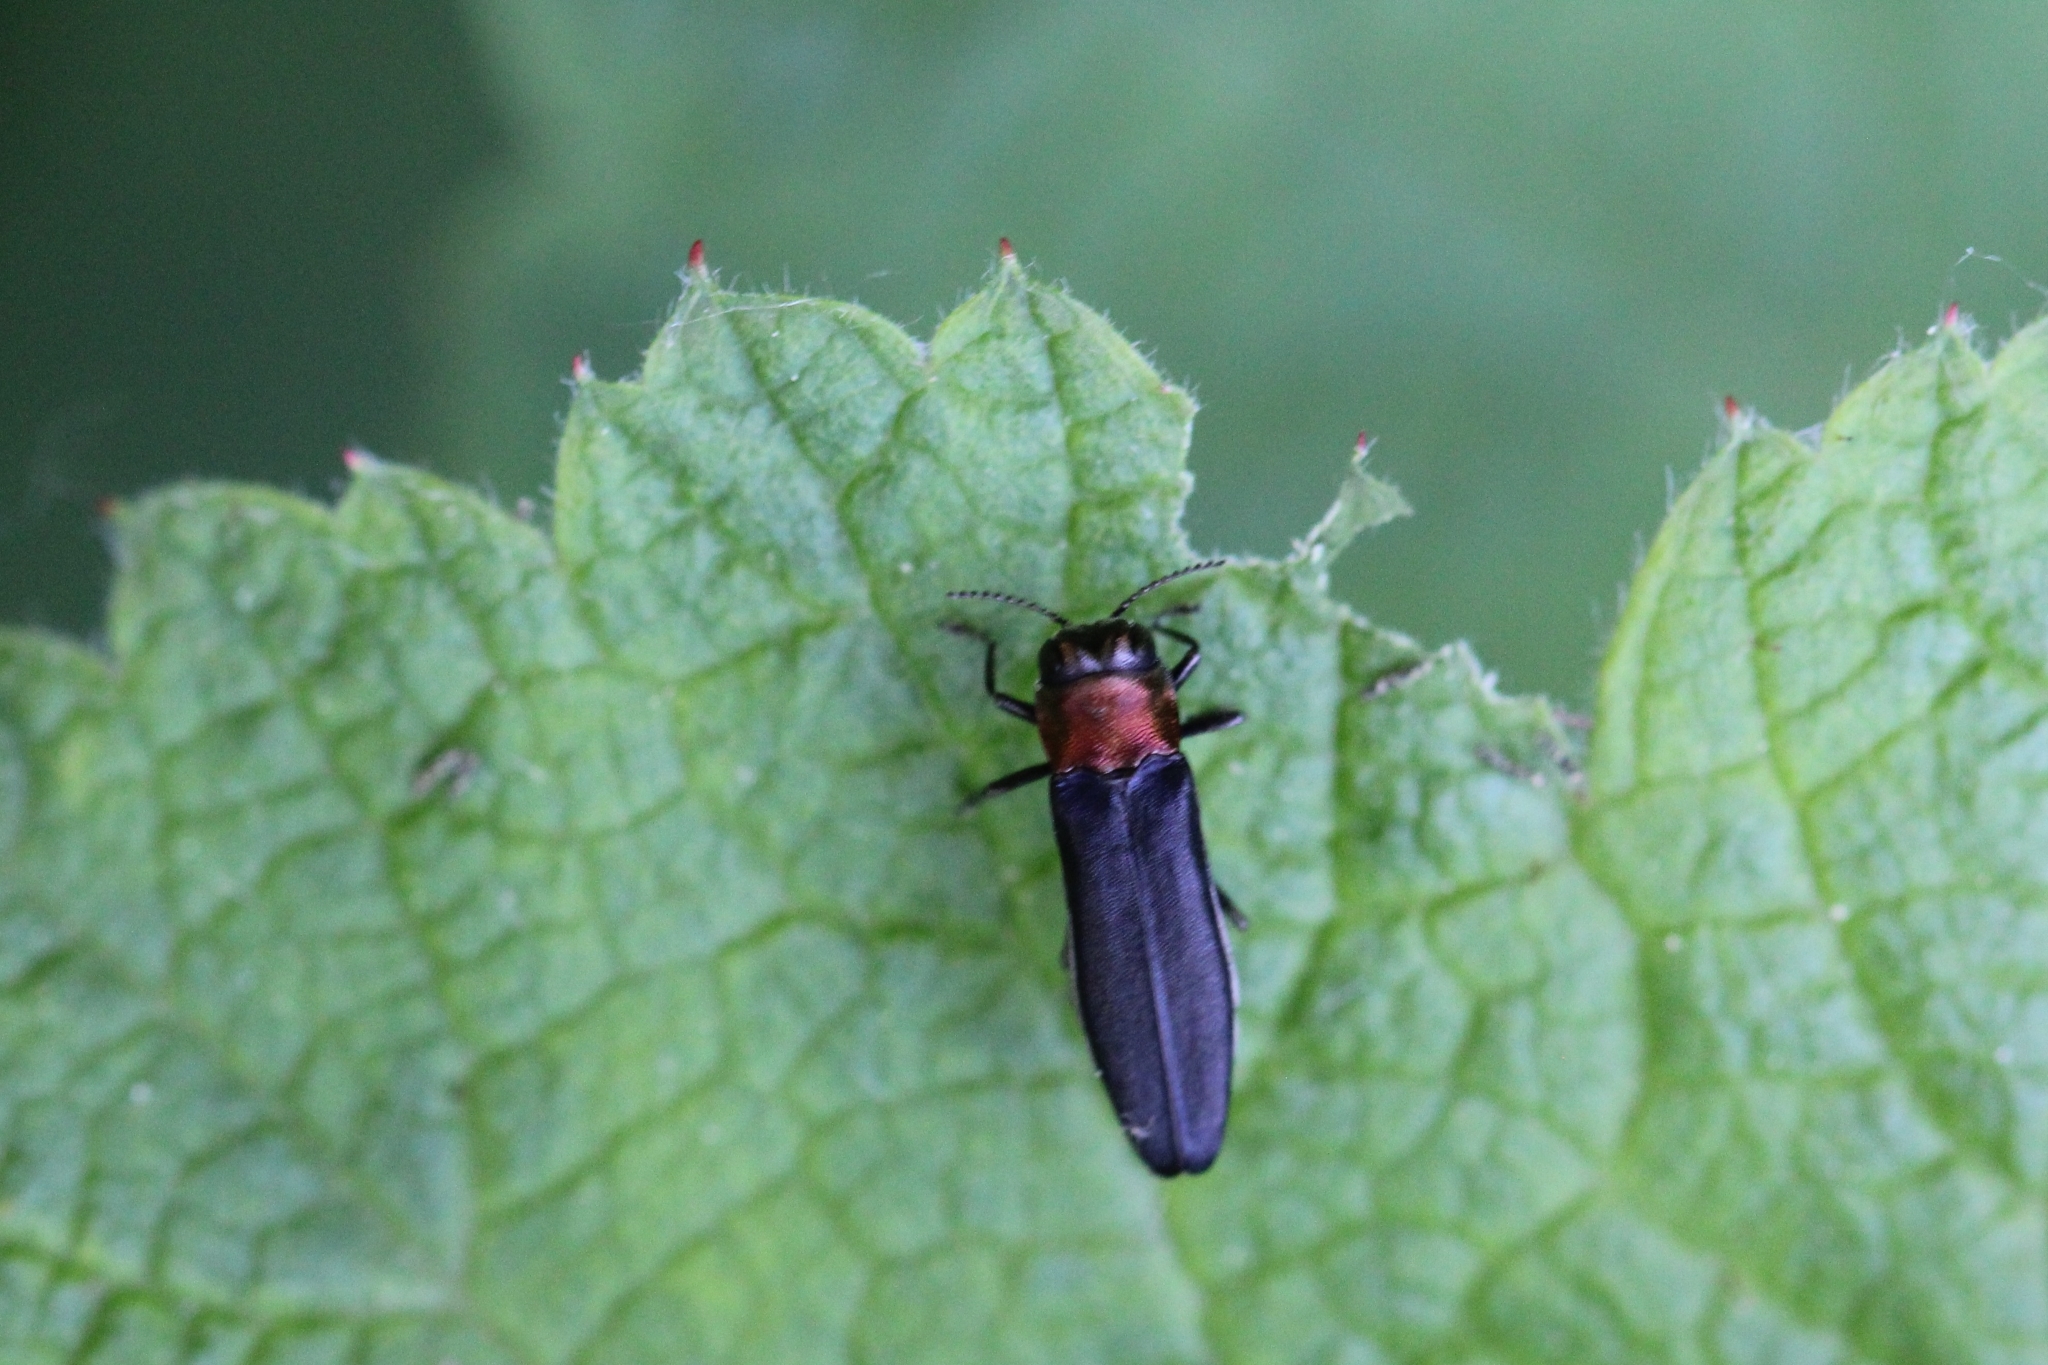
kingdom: Animalia
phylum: Arthropoda
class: Insecta
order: Coleoptera
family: Buprestidae
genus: Agrilus
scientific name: Agrilus ruficollis
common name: Red-necked cane borer beetle
